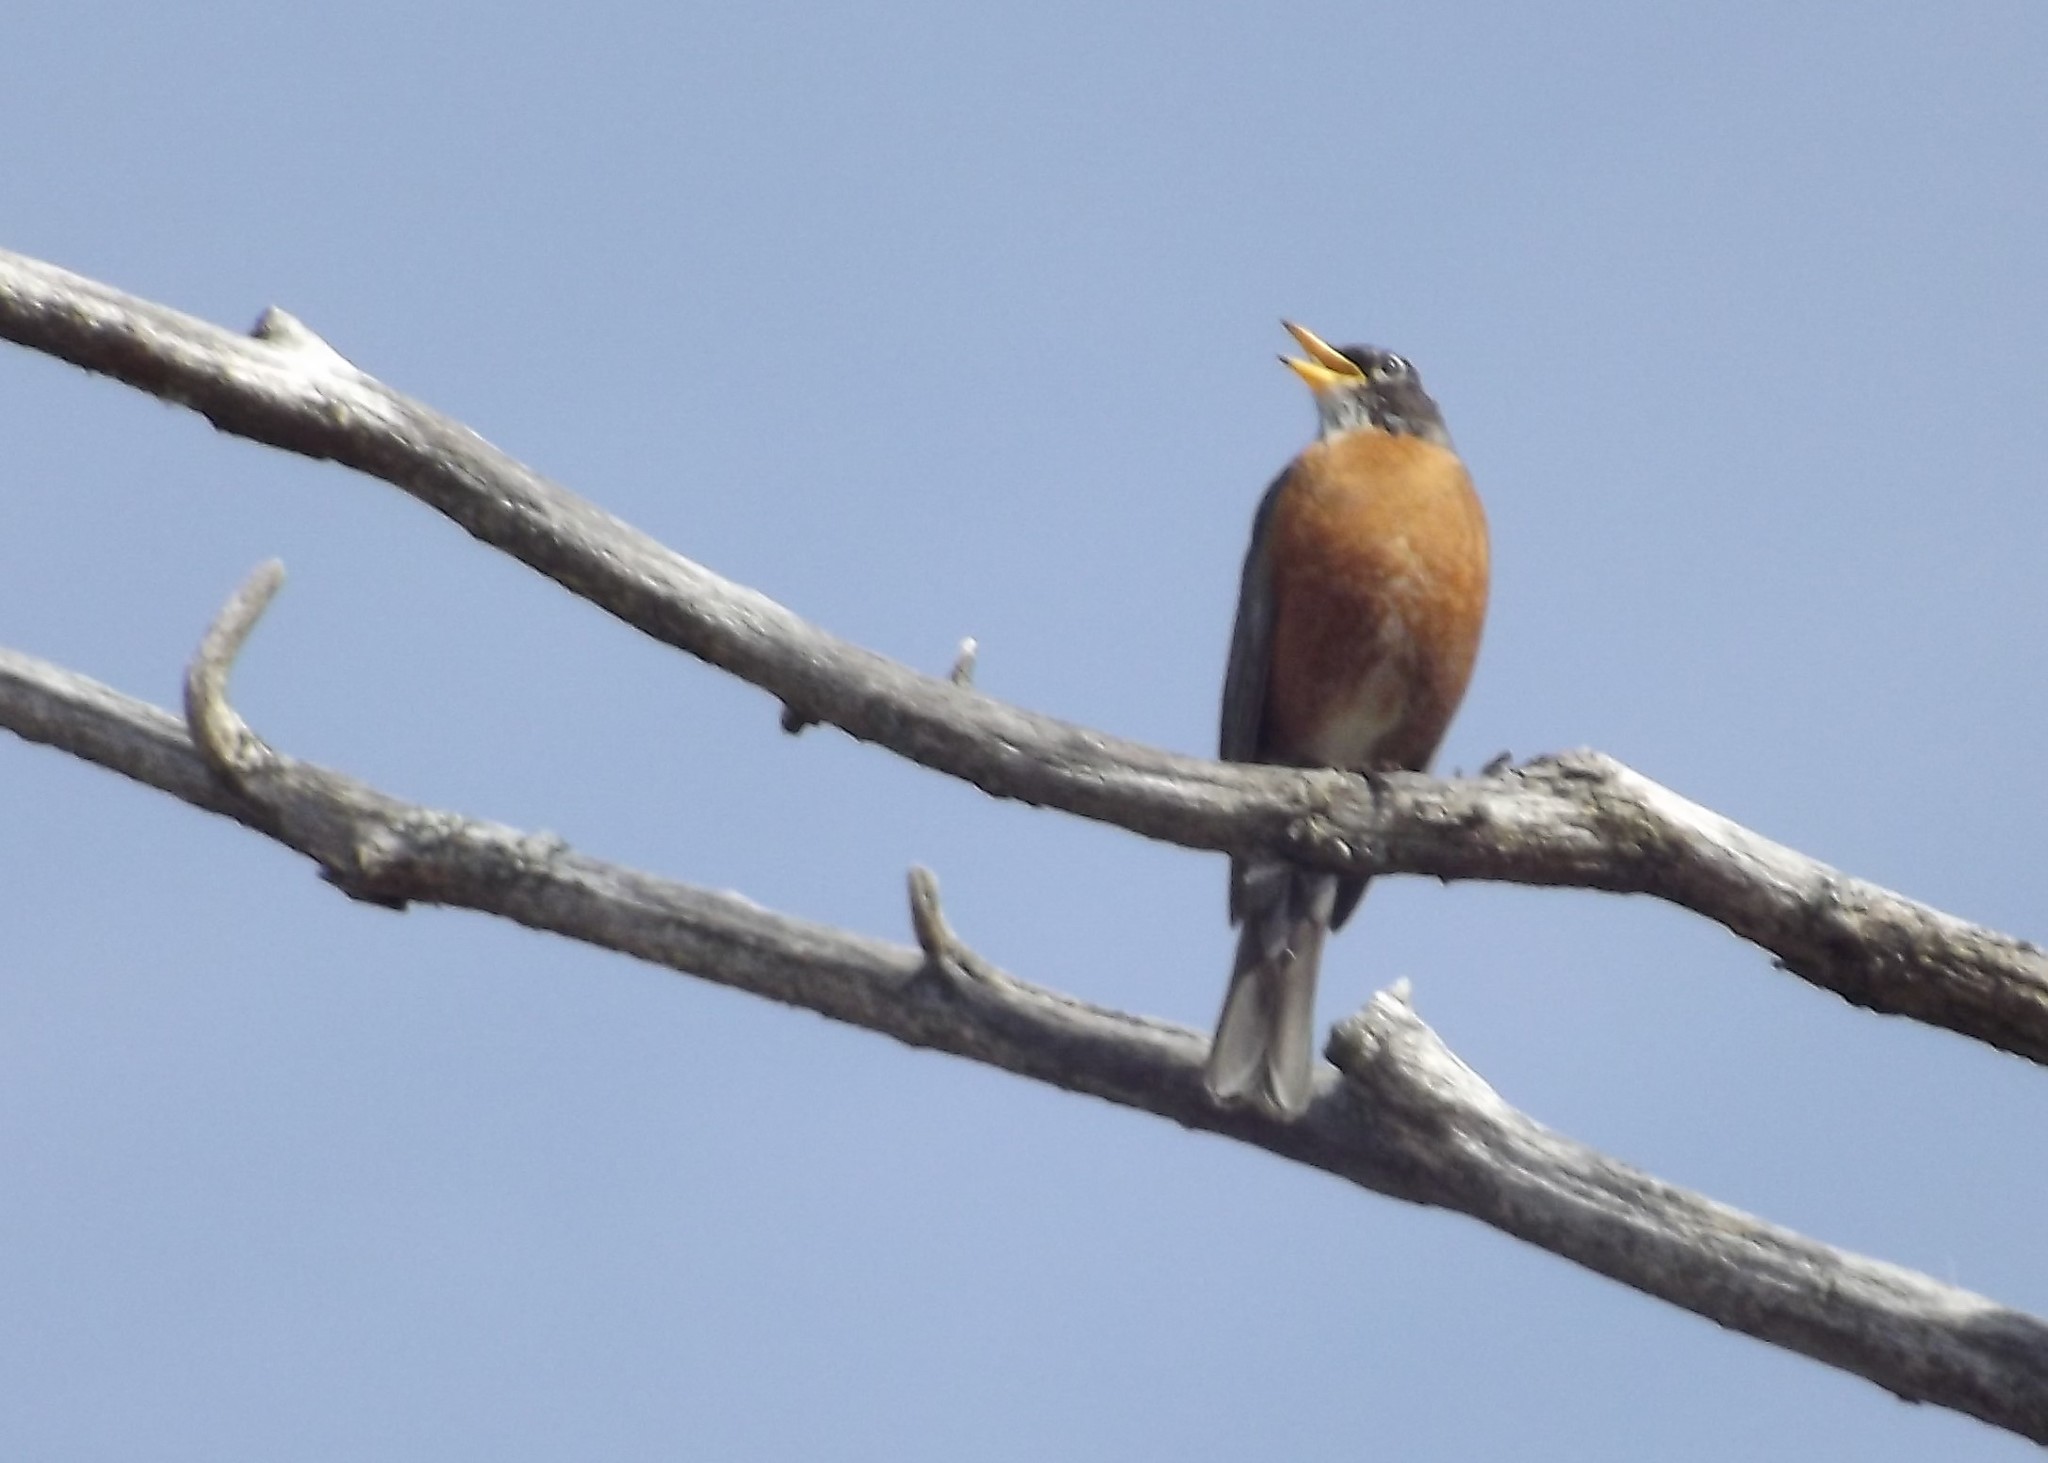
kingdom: Animalia
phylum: Chordata
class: Aves
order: Passeriformes
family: Turdidae
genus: Turdus
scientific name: Turdus migratorius
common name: American robin
